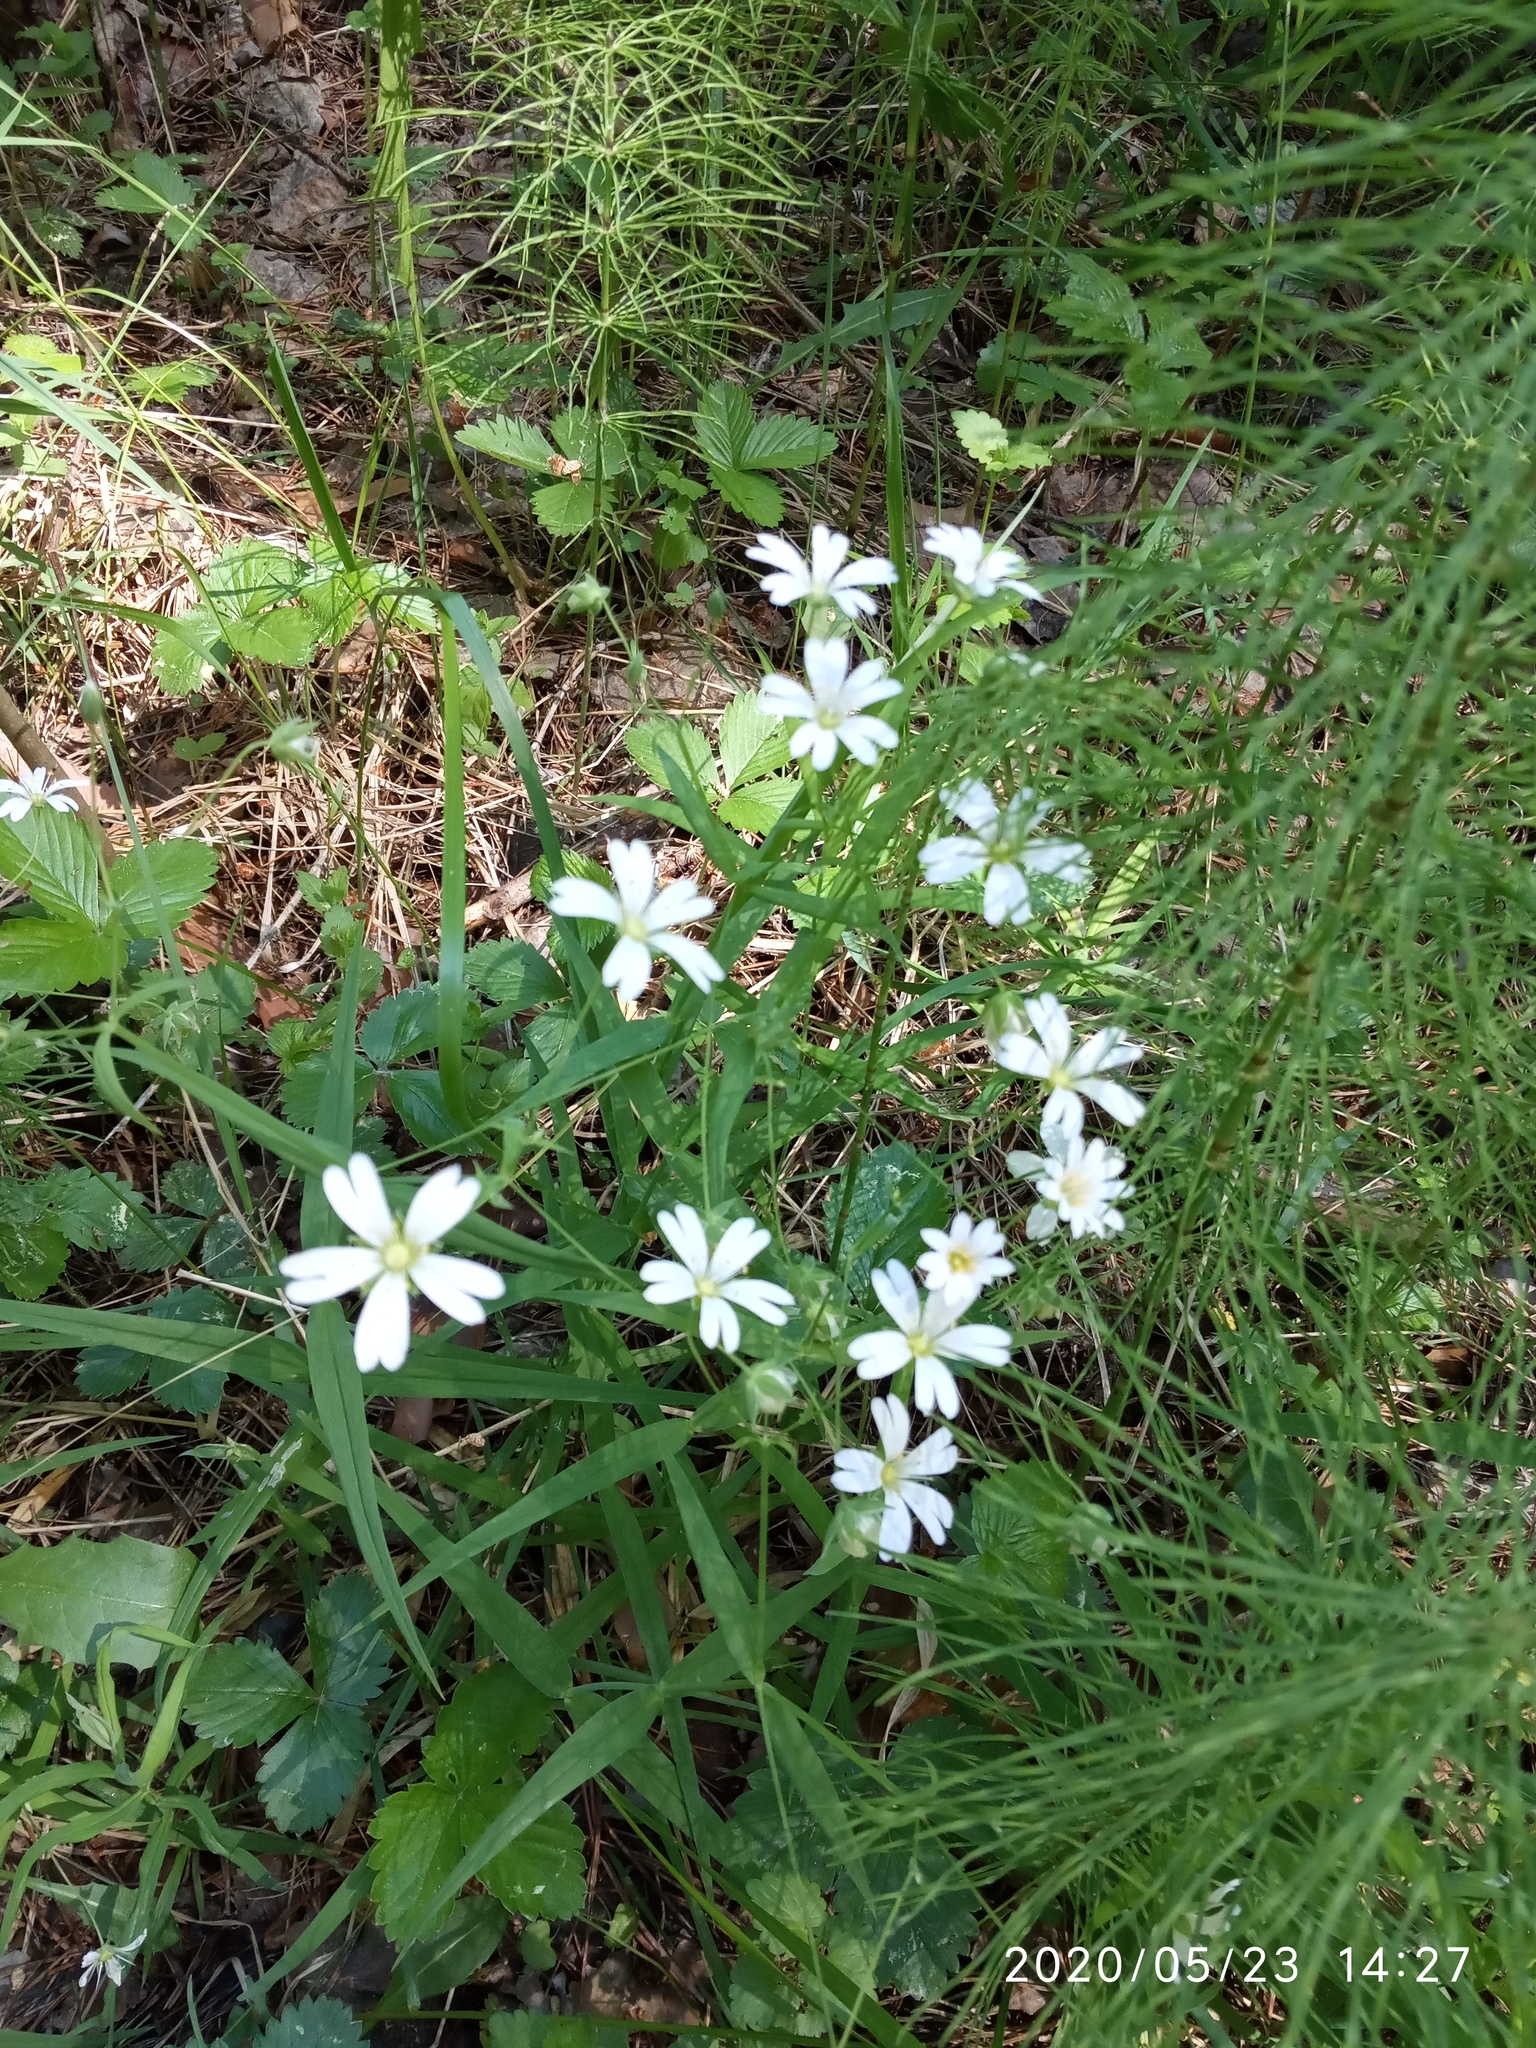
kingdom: Plantae
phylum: Tracheophyta
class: Magnoliopsida
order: Caryophyllales
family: Caryophyllaceae
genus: Rabelera
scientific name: Rabelera holostea
